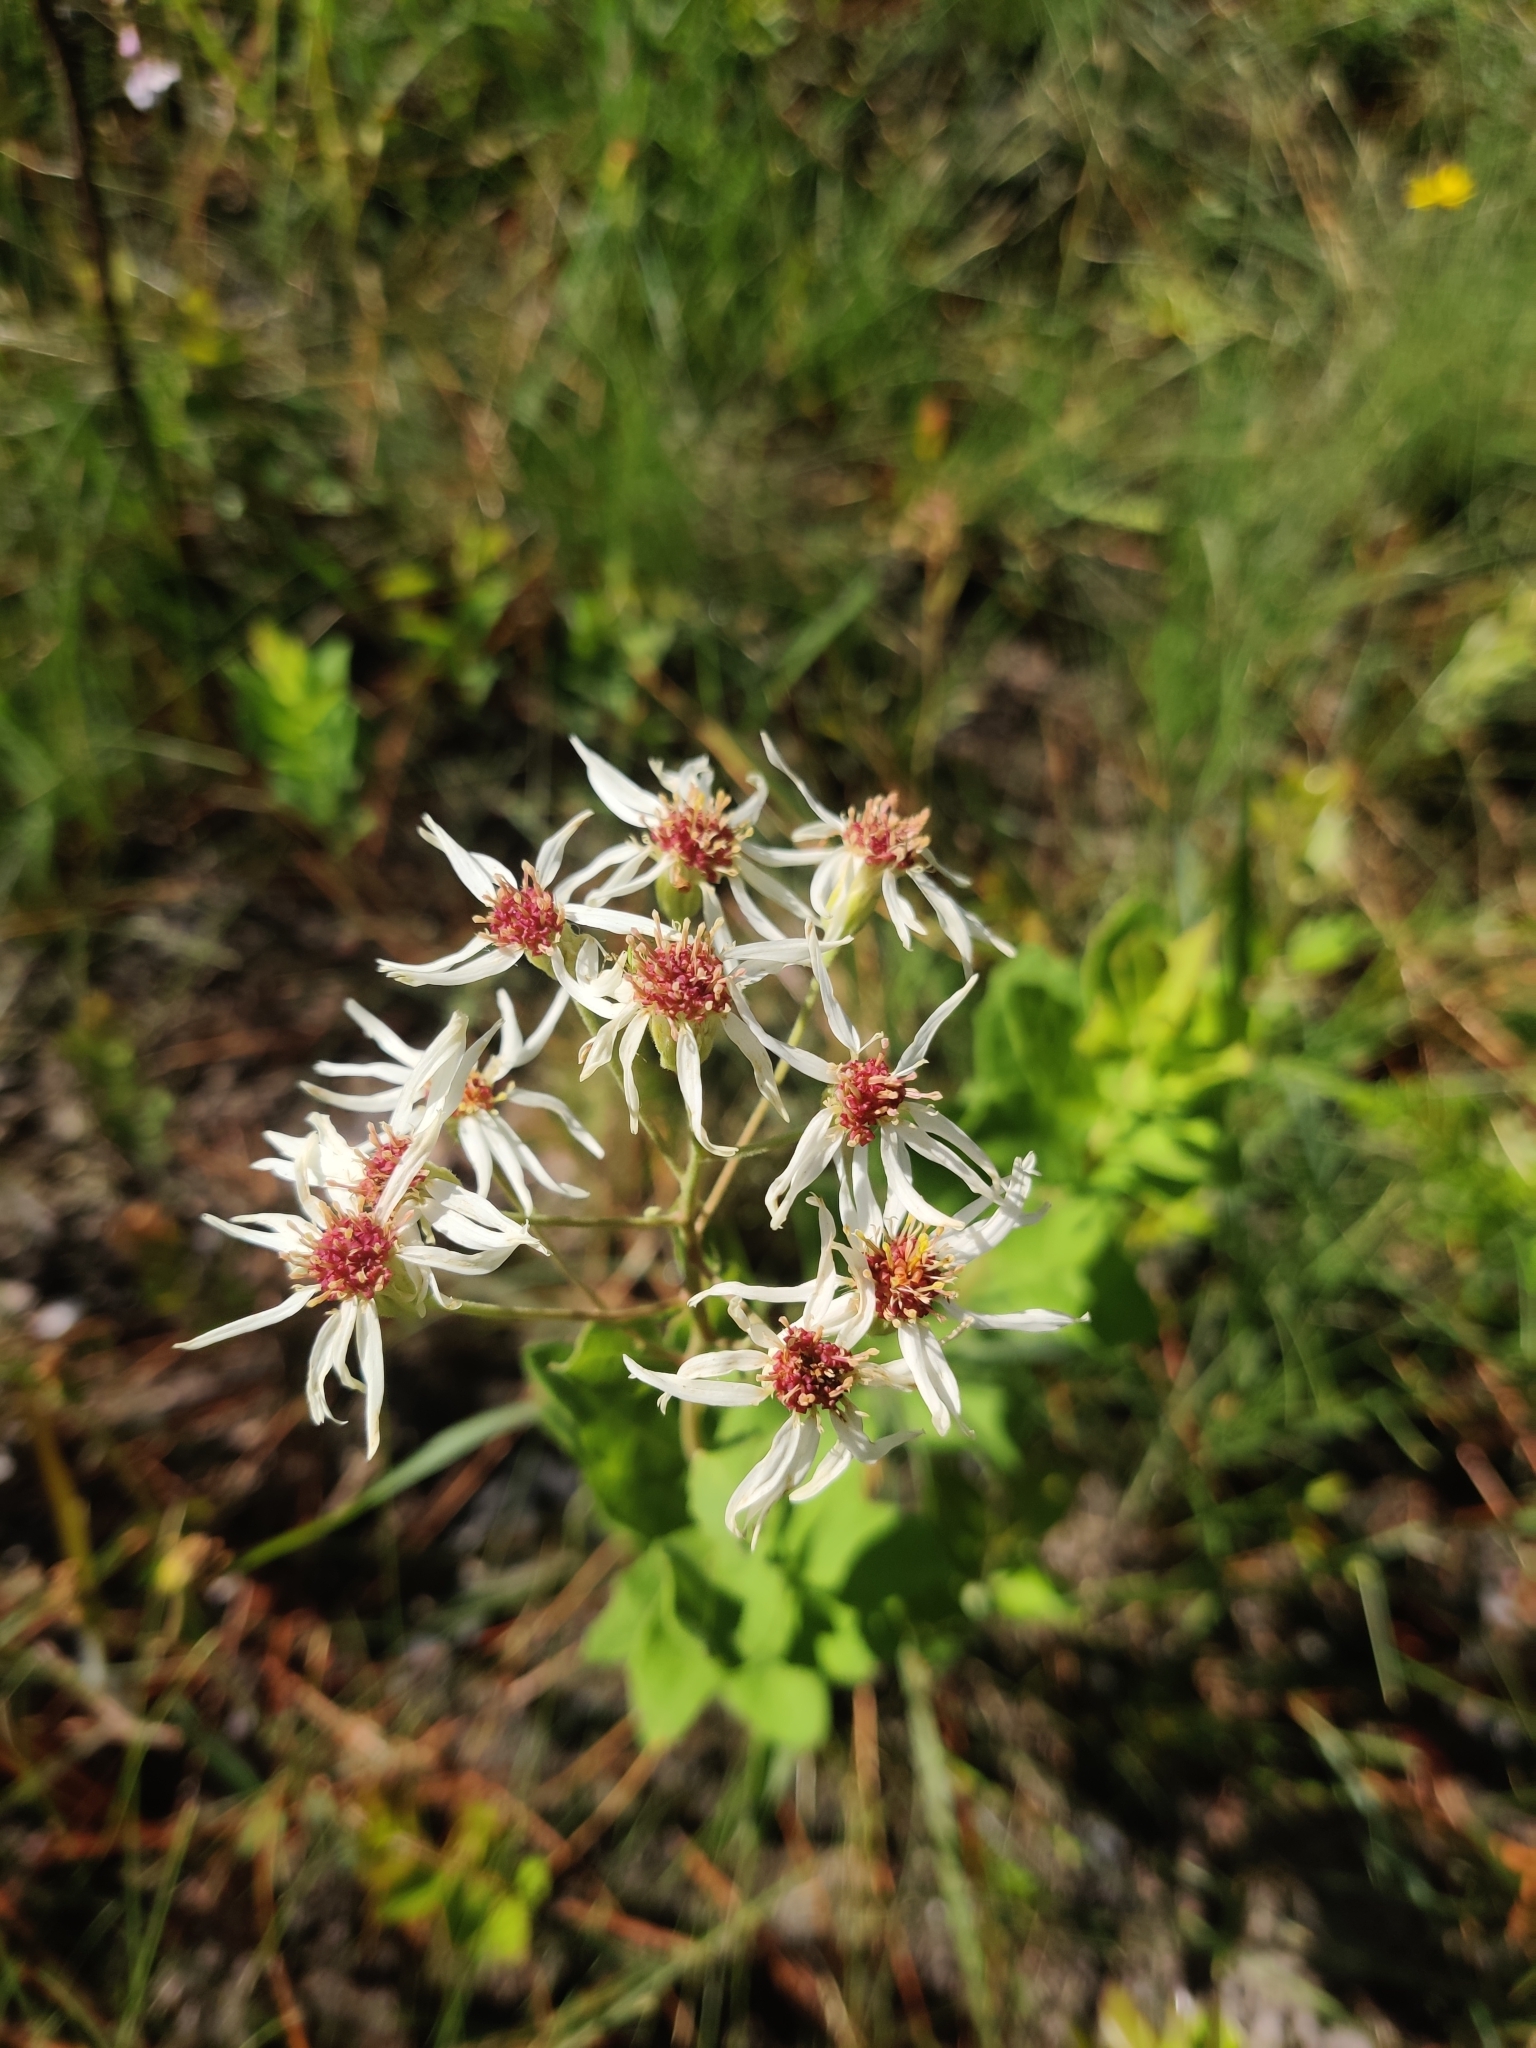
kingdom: Plantae
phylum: Tracheophyta
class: Magnoliopsida
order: Asterales
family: Asteraceae
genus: Oclemena
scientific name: Oclemena reticulata
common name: Pinebarren aster
